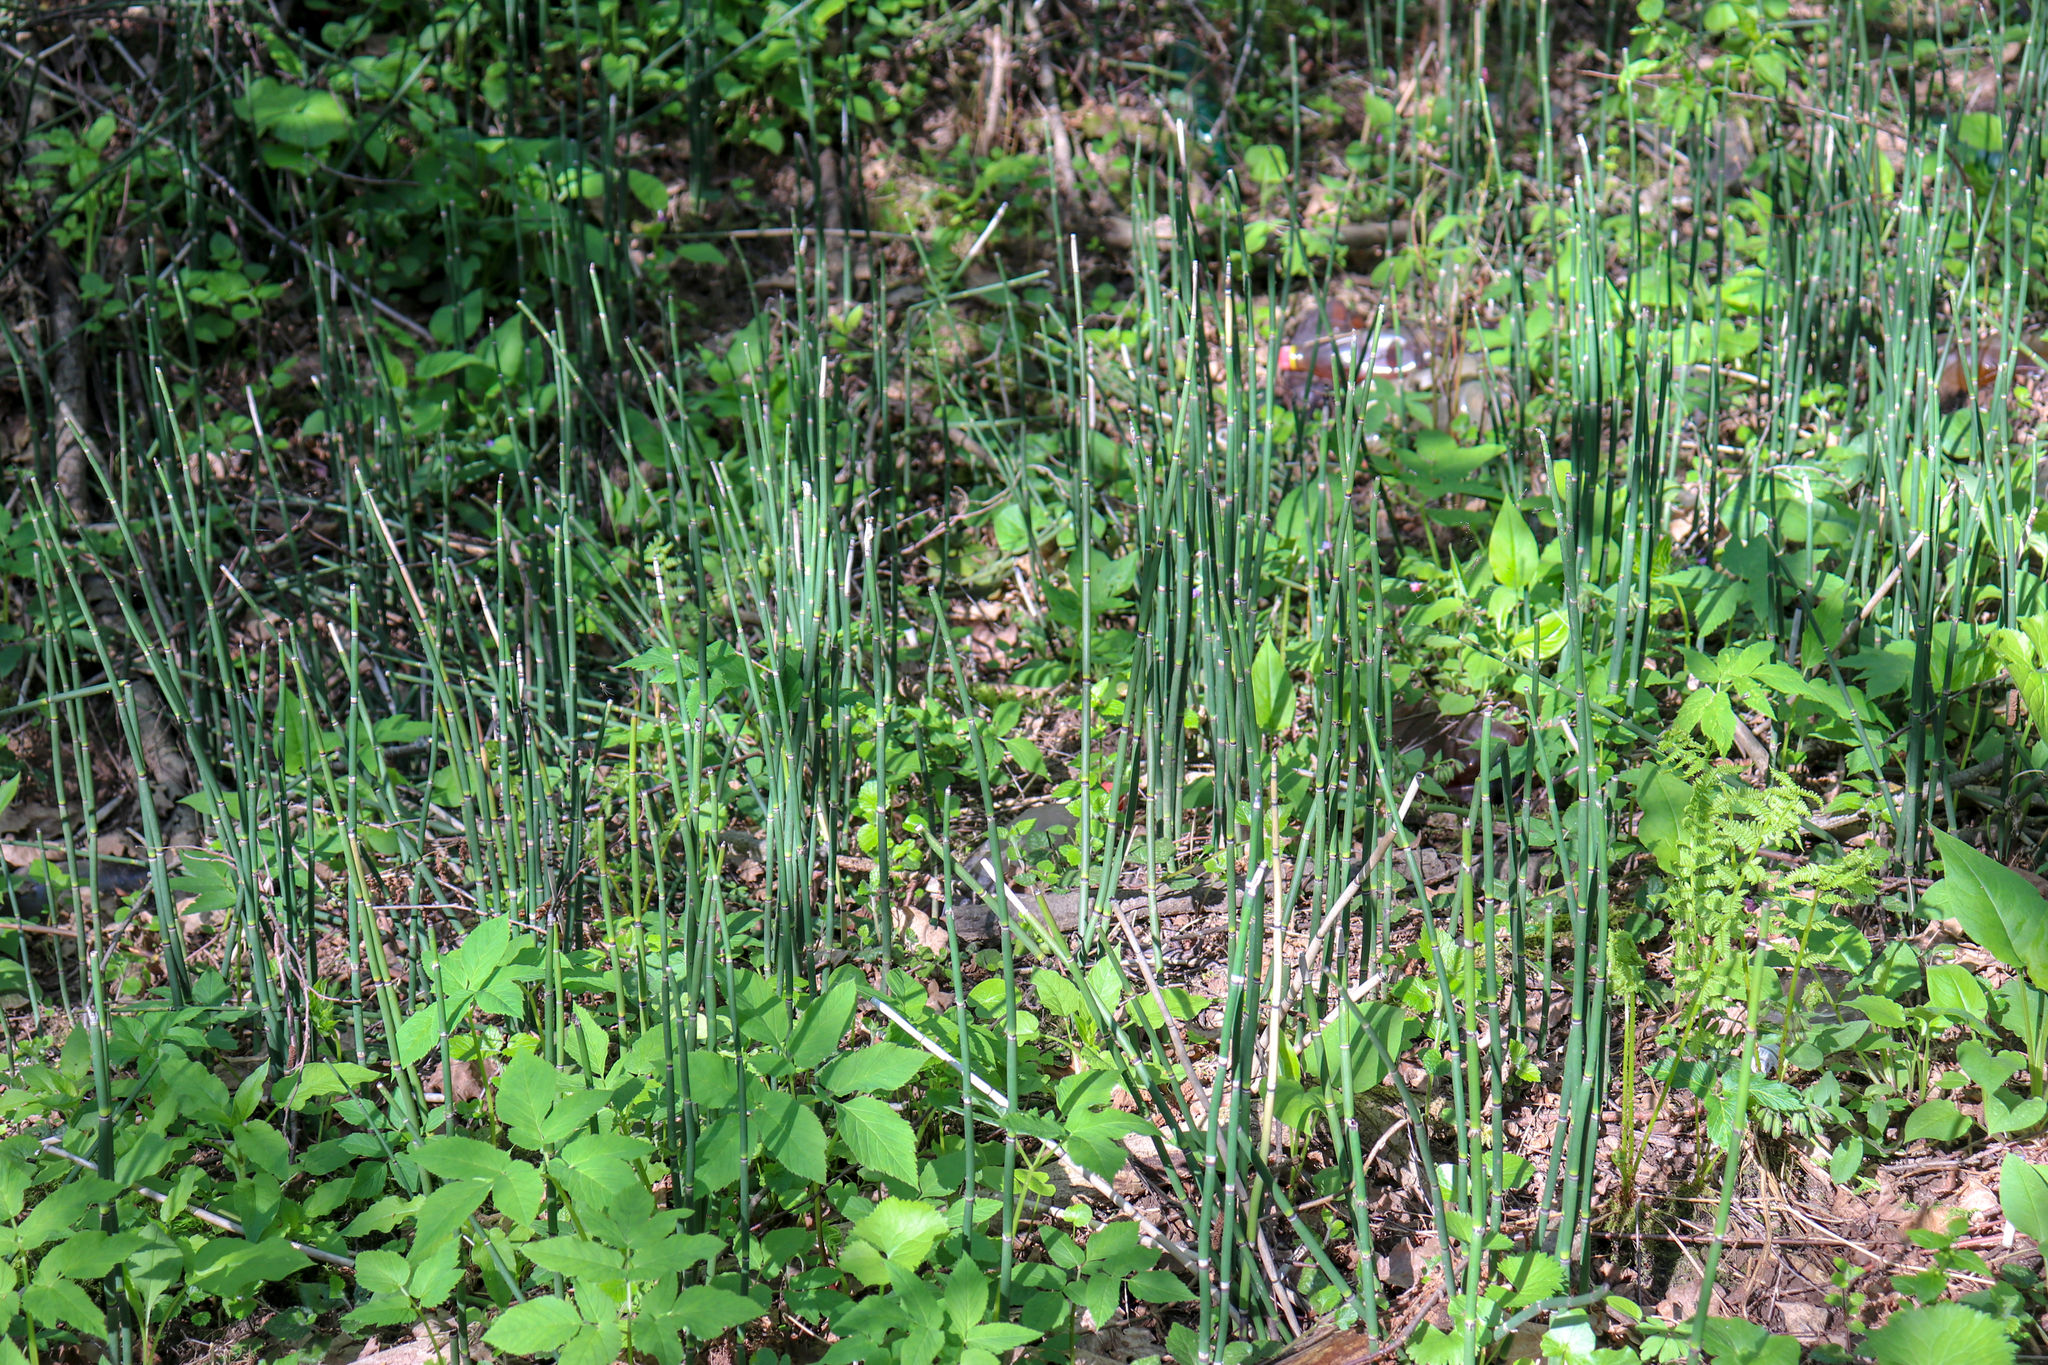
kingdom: Plantae
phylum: Tracheophyta
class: Polypodiopsida
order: Equisetales
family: Equisetaceae
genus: Equisetum
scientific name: Equisetum hyemale
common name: Rough horsetail
